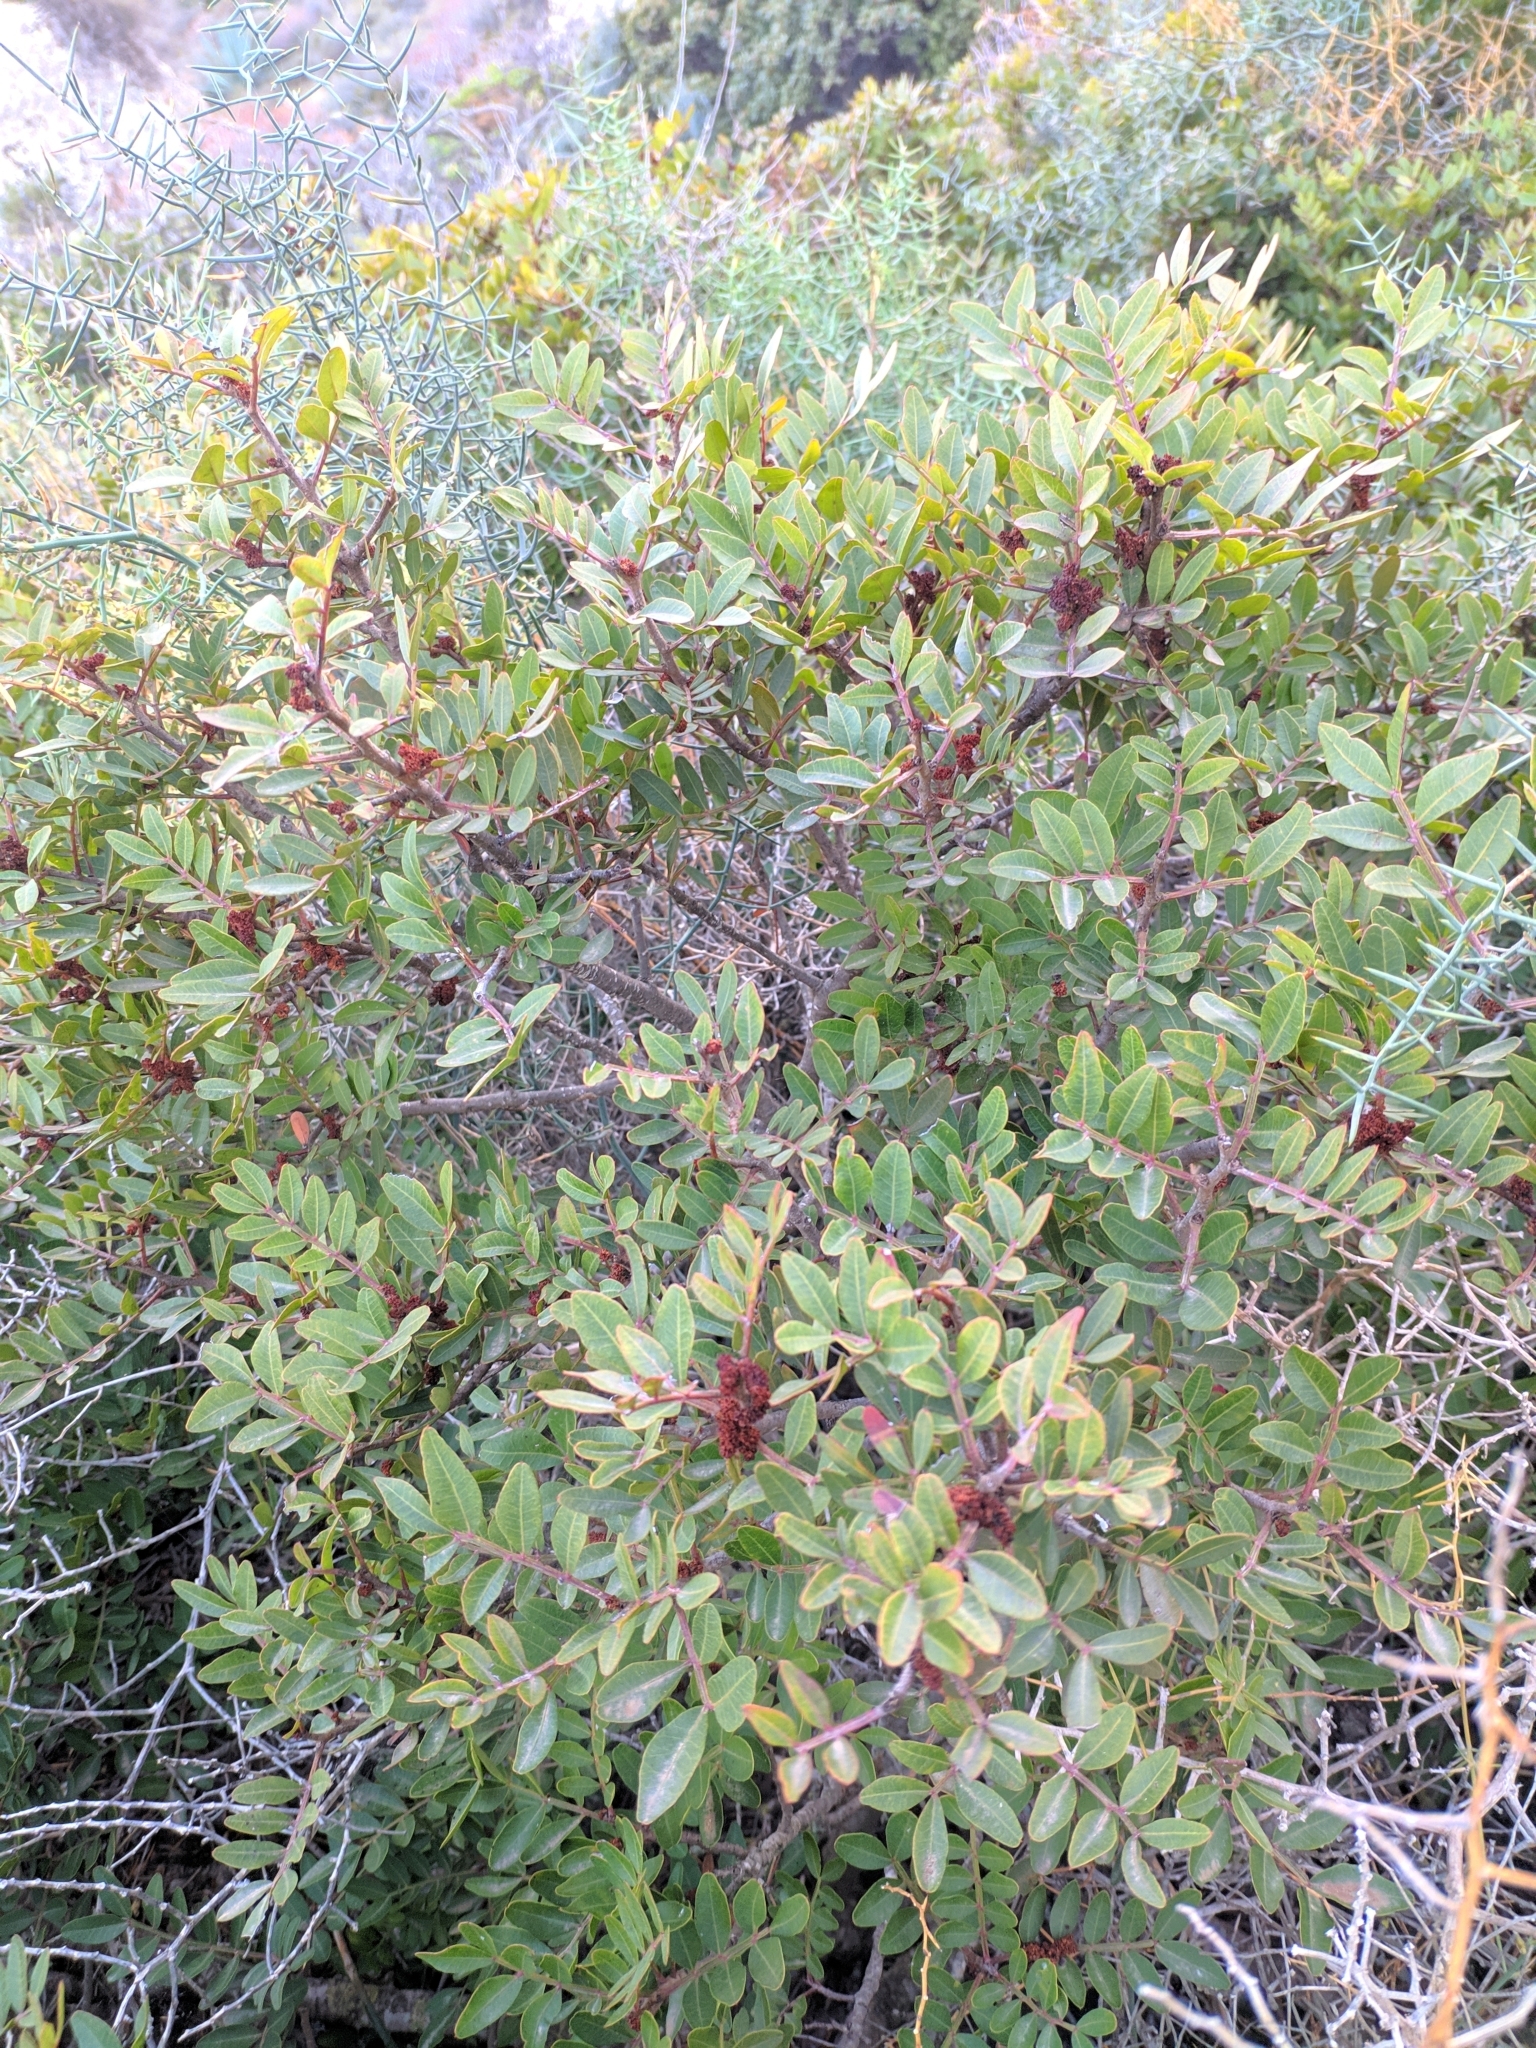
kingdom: Plantae
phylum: Tracheophyta
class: Magnoliopsida
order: Sapindales
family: Anacardiaceae
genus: Pistacia
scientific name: Pistacia lentiscus
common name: Lentisk
